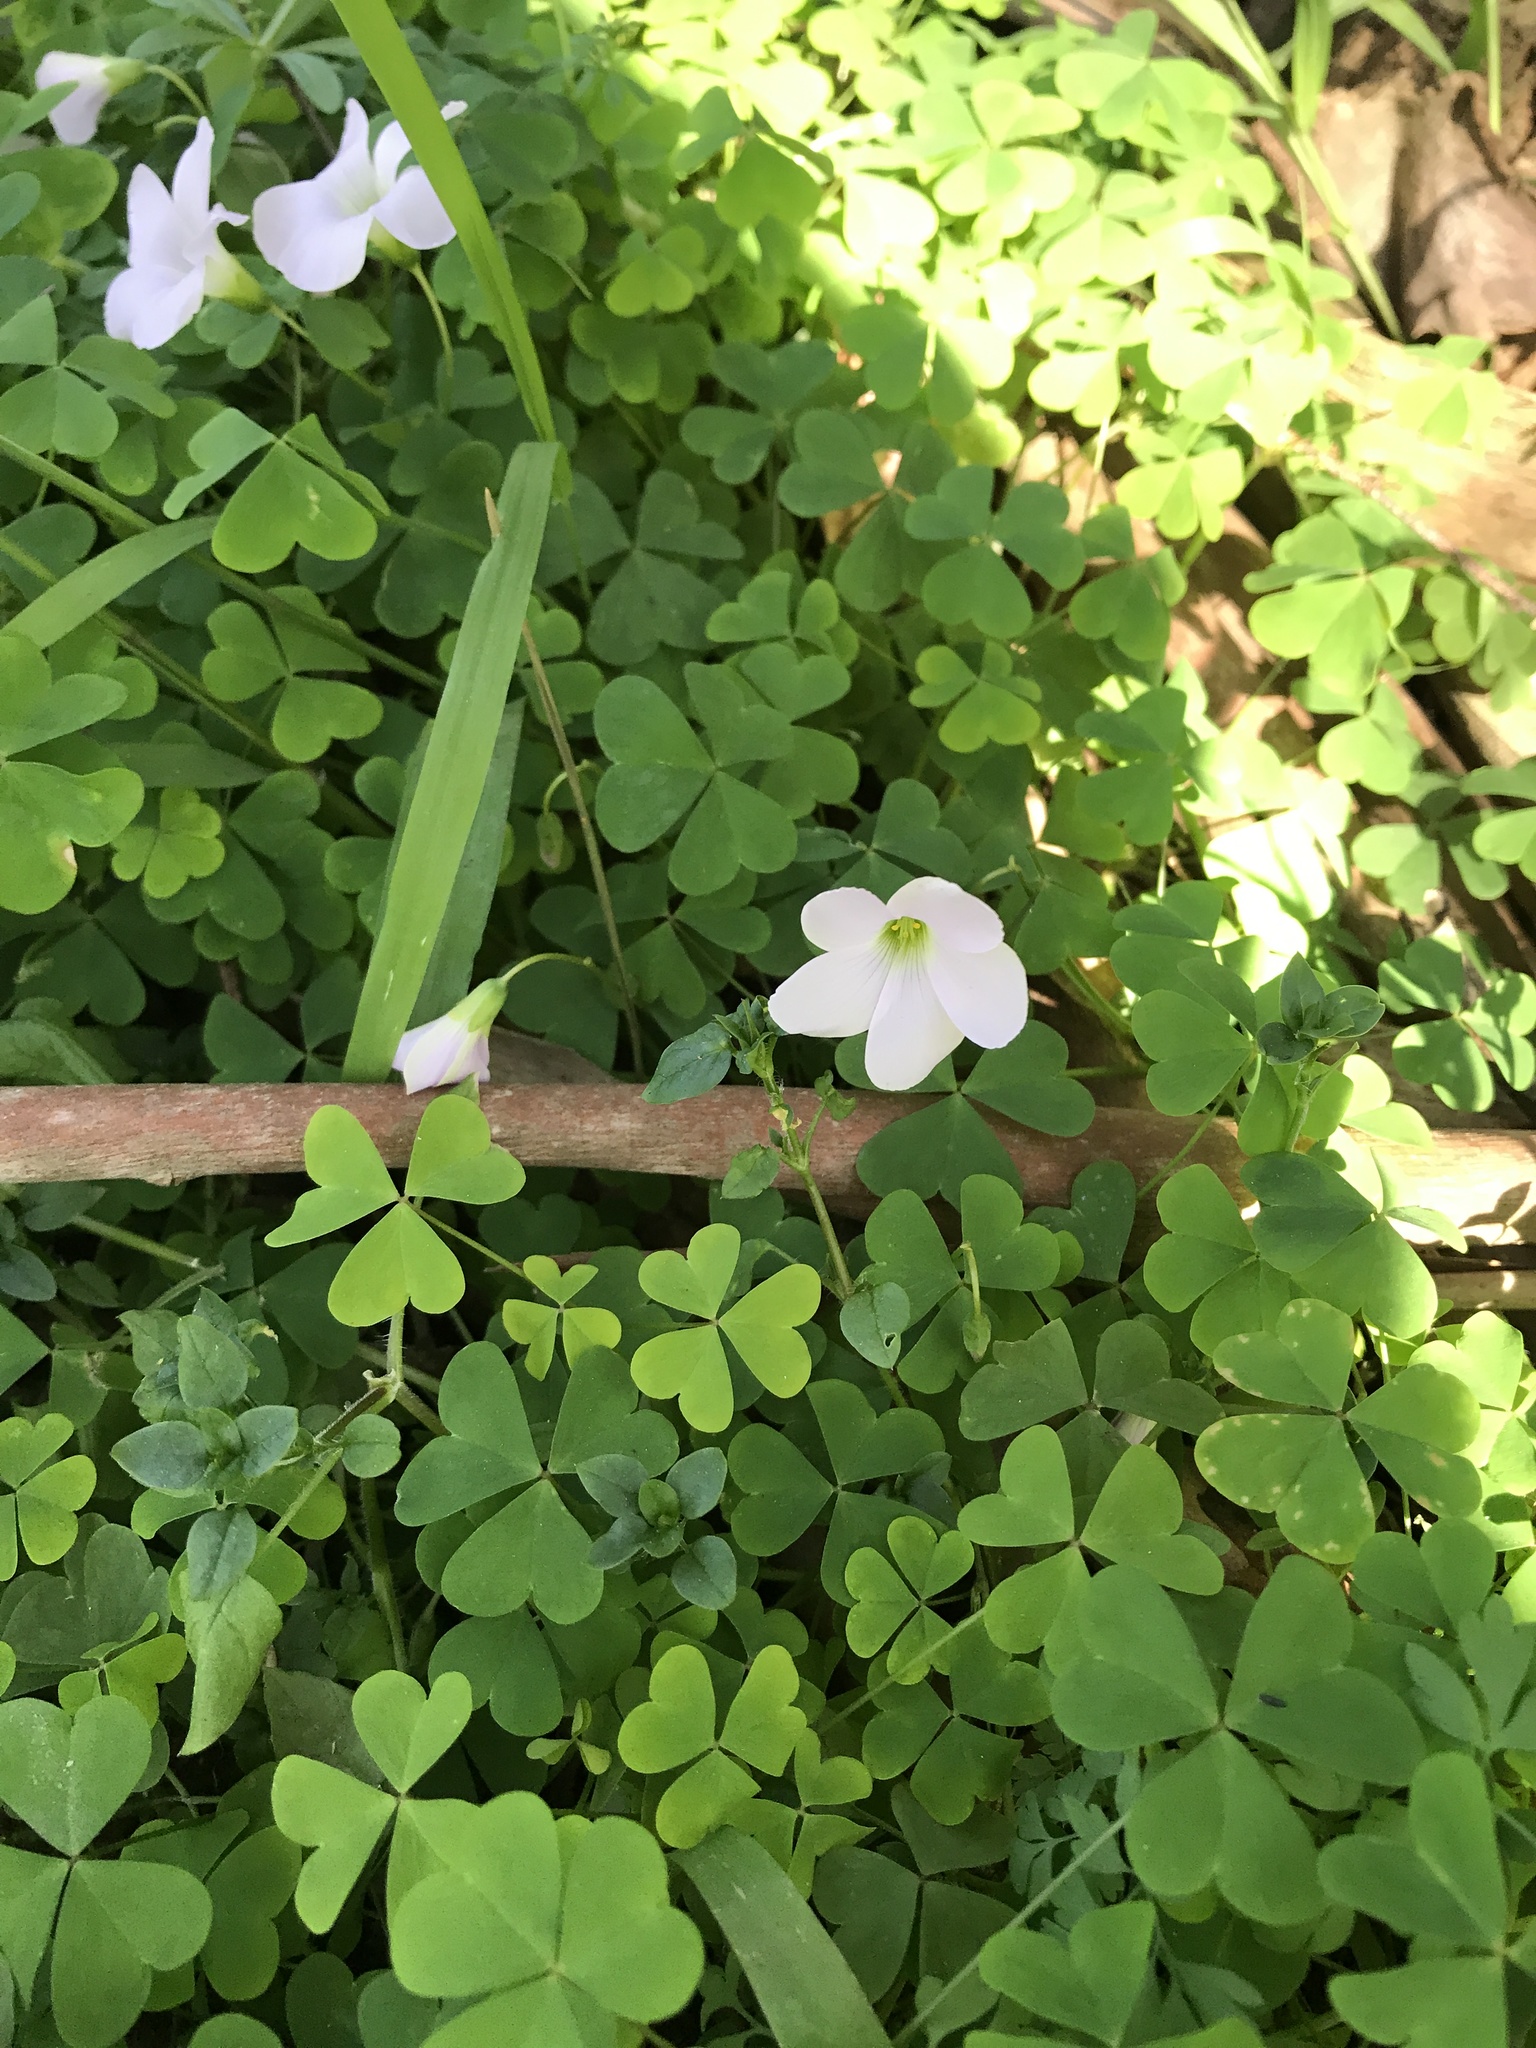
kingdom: Plantae
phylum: Tracheophyta
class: Magnoliopsida
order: Oxalidales
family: Oxalidaceae
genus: Oxalis
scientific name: Oxalis incarnata
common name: Pale pink-sorrel
